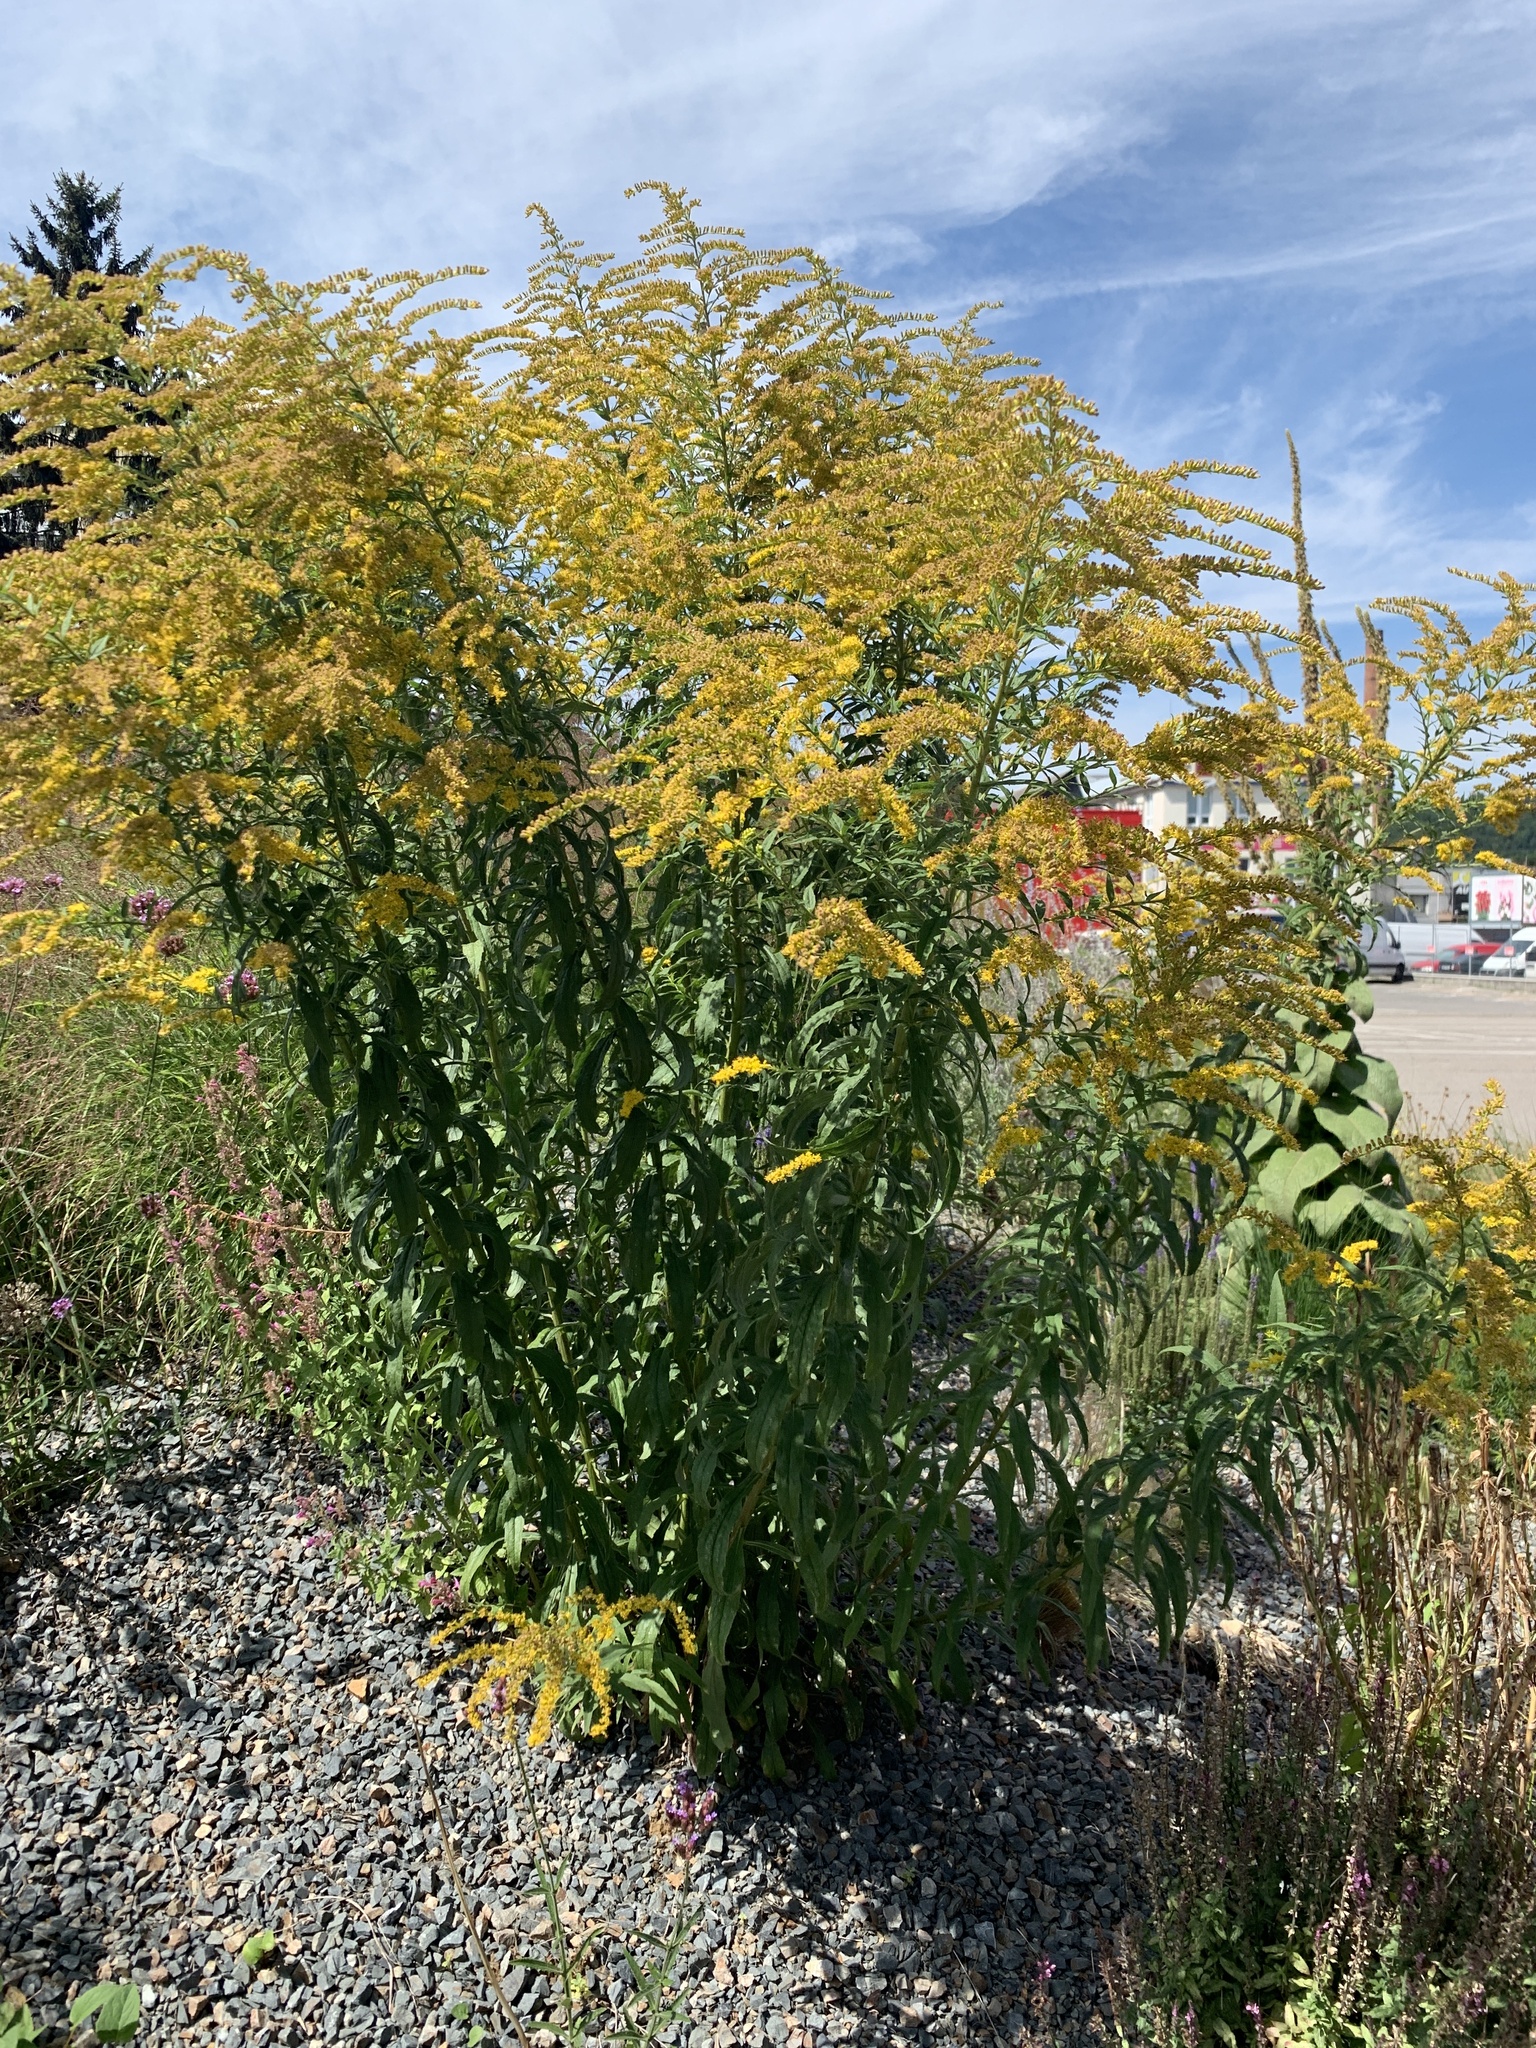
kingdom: Plantae
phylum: Tracheophyta
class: Magnoliopsida
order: Asterales
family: Asteraceae
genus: Solidago
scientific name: Solidago canadensis
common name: Canada goldenrod
